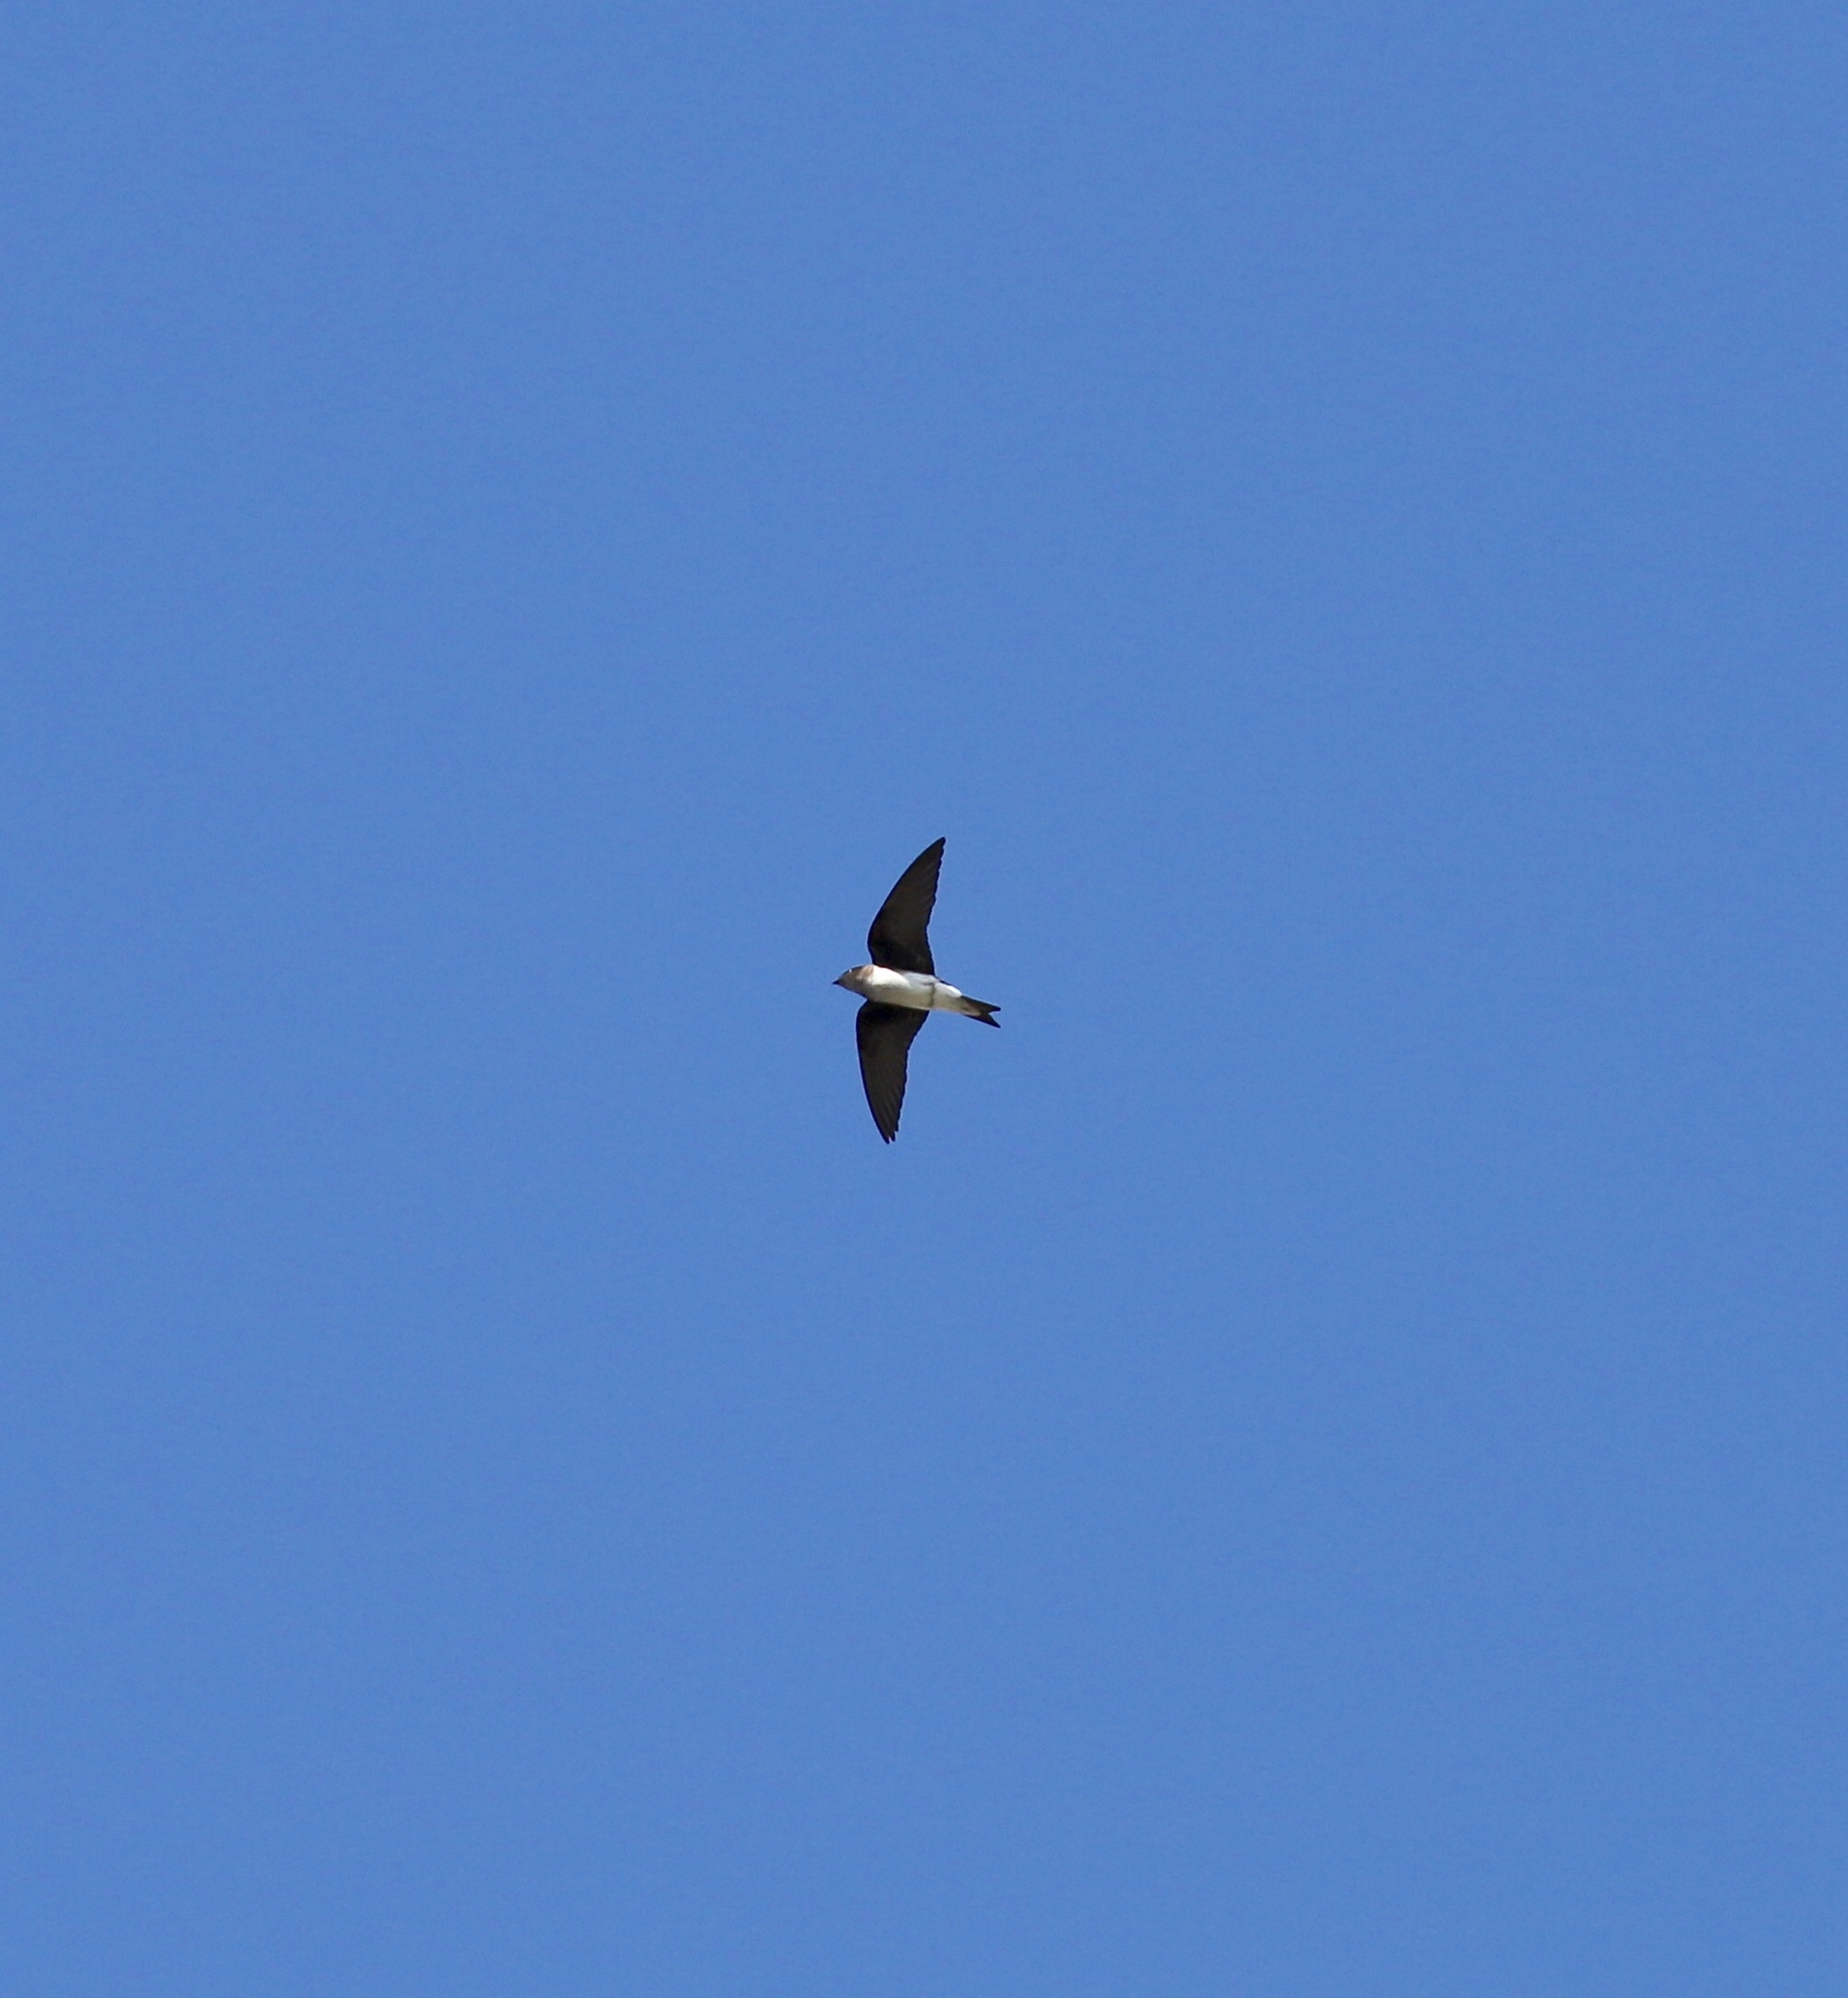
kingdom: Animalia
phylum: Chordata
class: Aves
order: Passeriformes
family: Hirundinidae
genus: Progne
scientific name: Progne chalybea
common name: Grey-breasted martin
